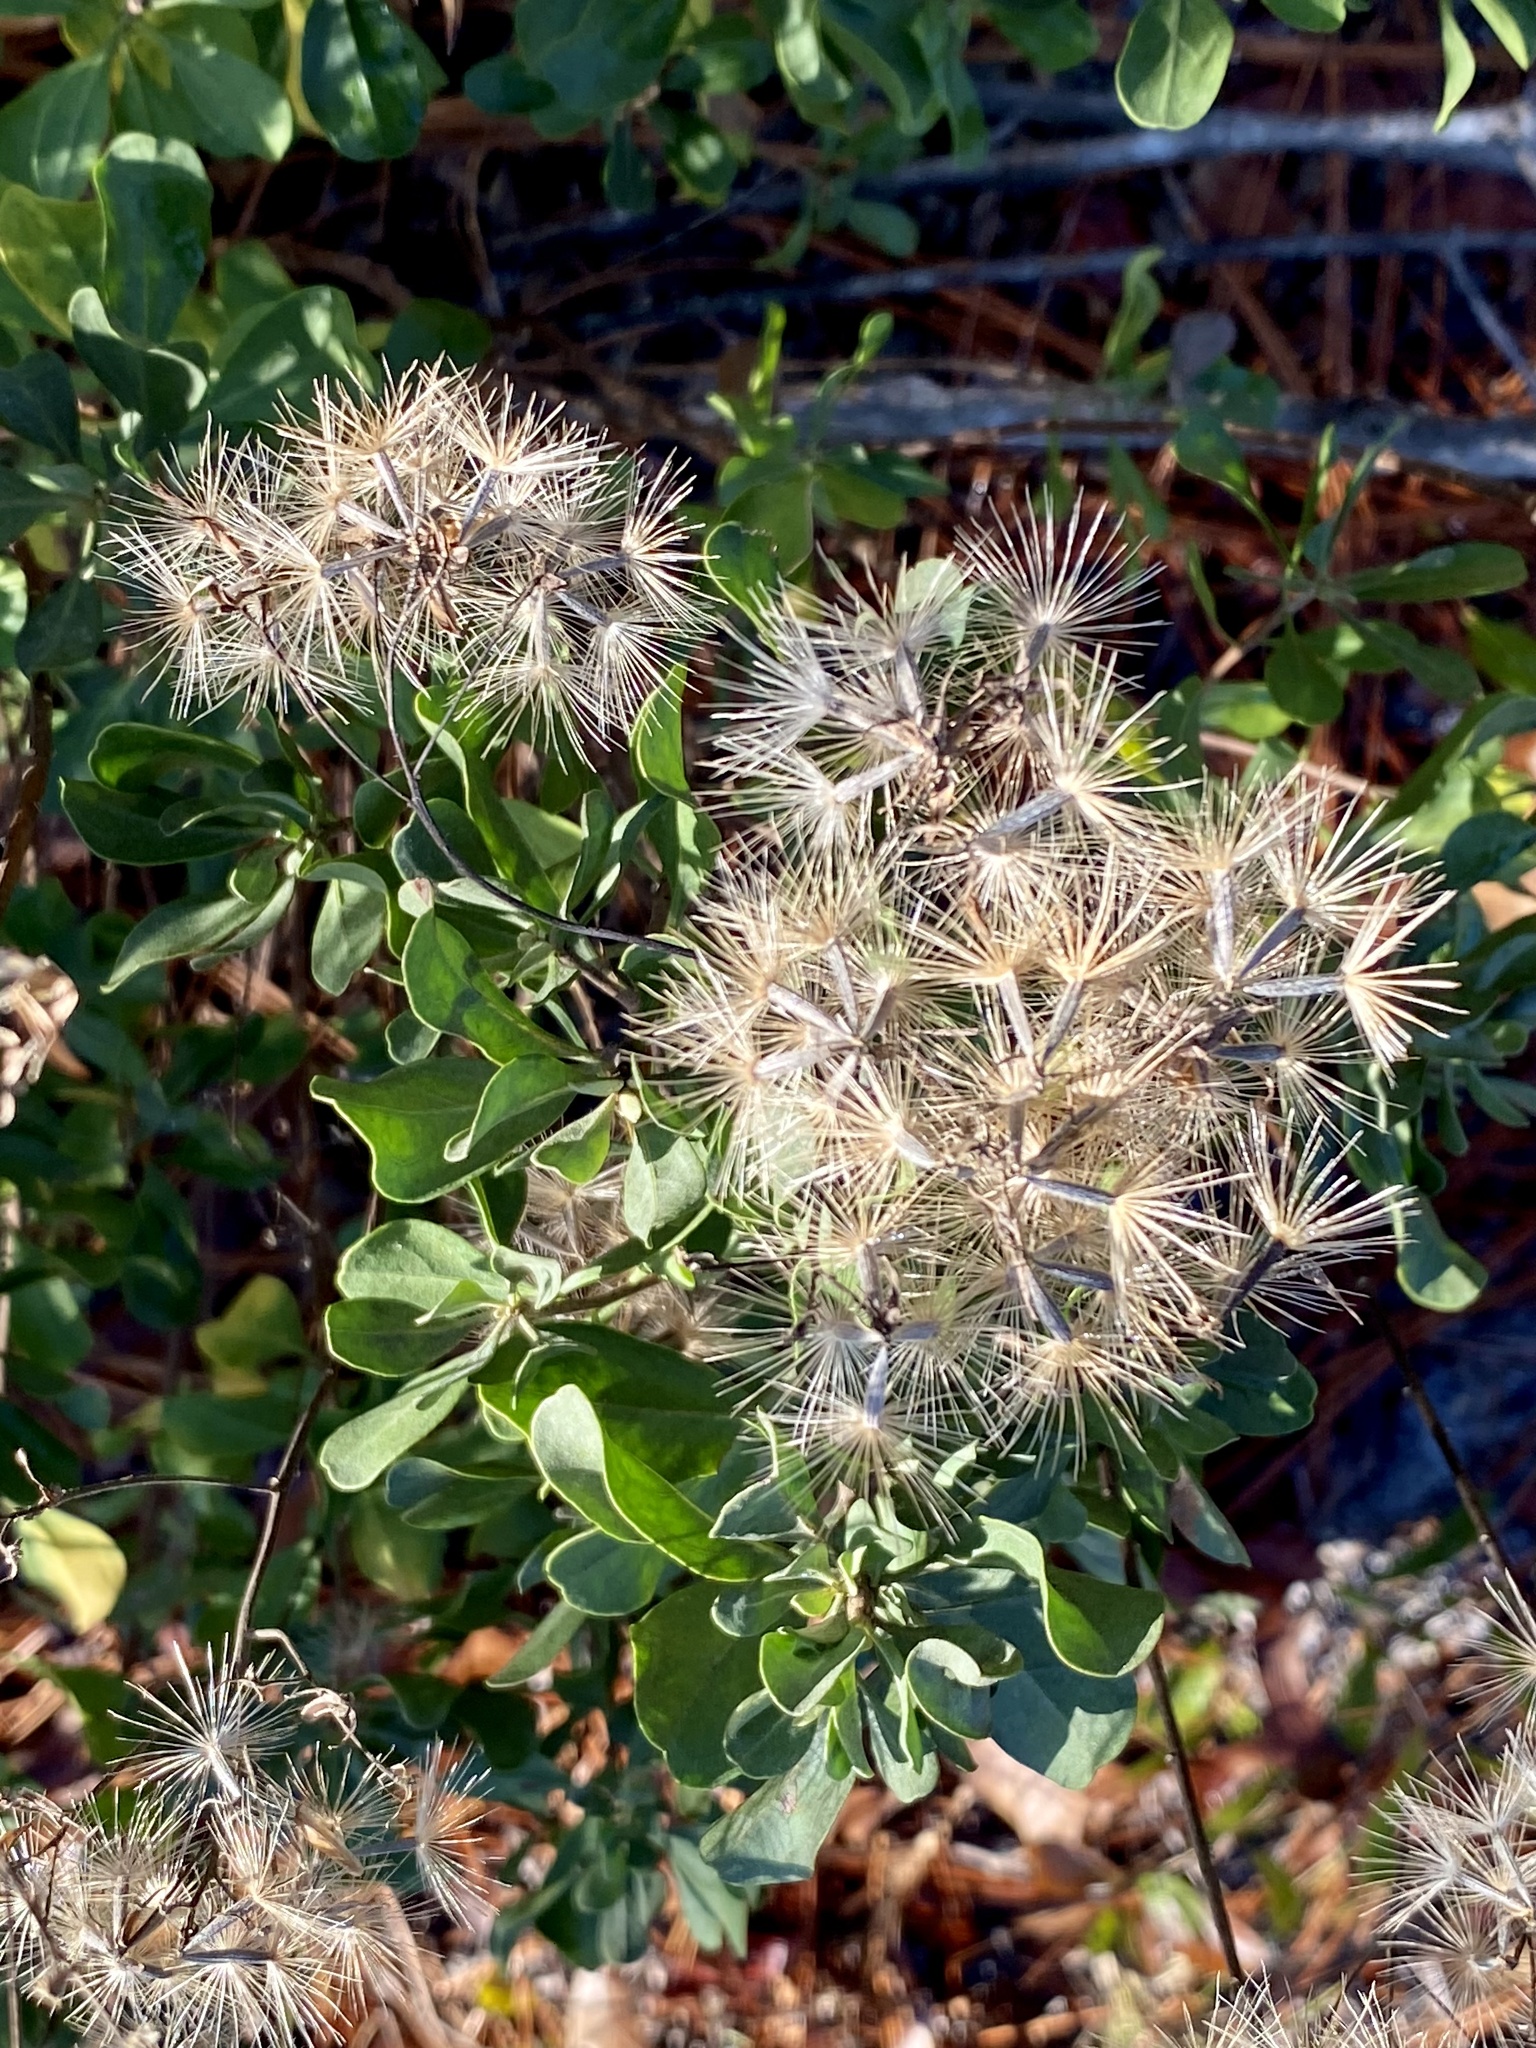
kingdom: Plantae
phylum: Tracheophyta
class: Magnoliopsida
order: Asterales
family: Asteraceae
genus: Garberia
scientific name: Garberia heterophylla
